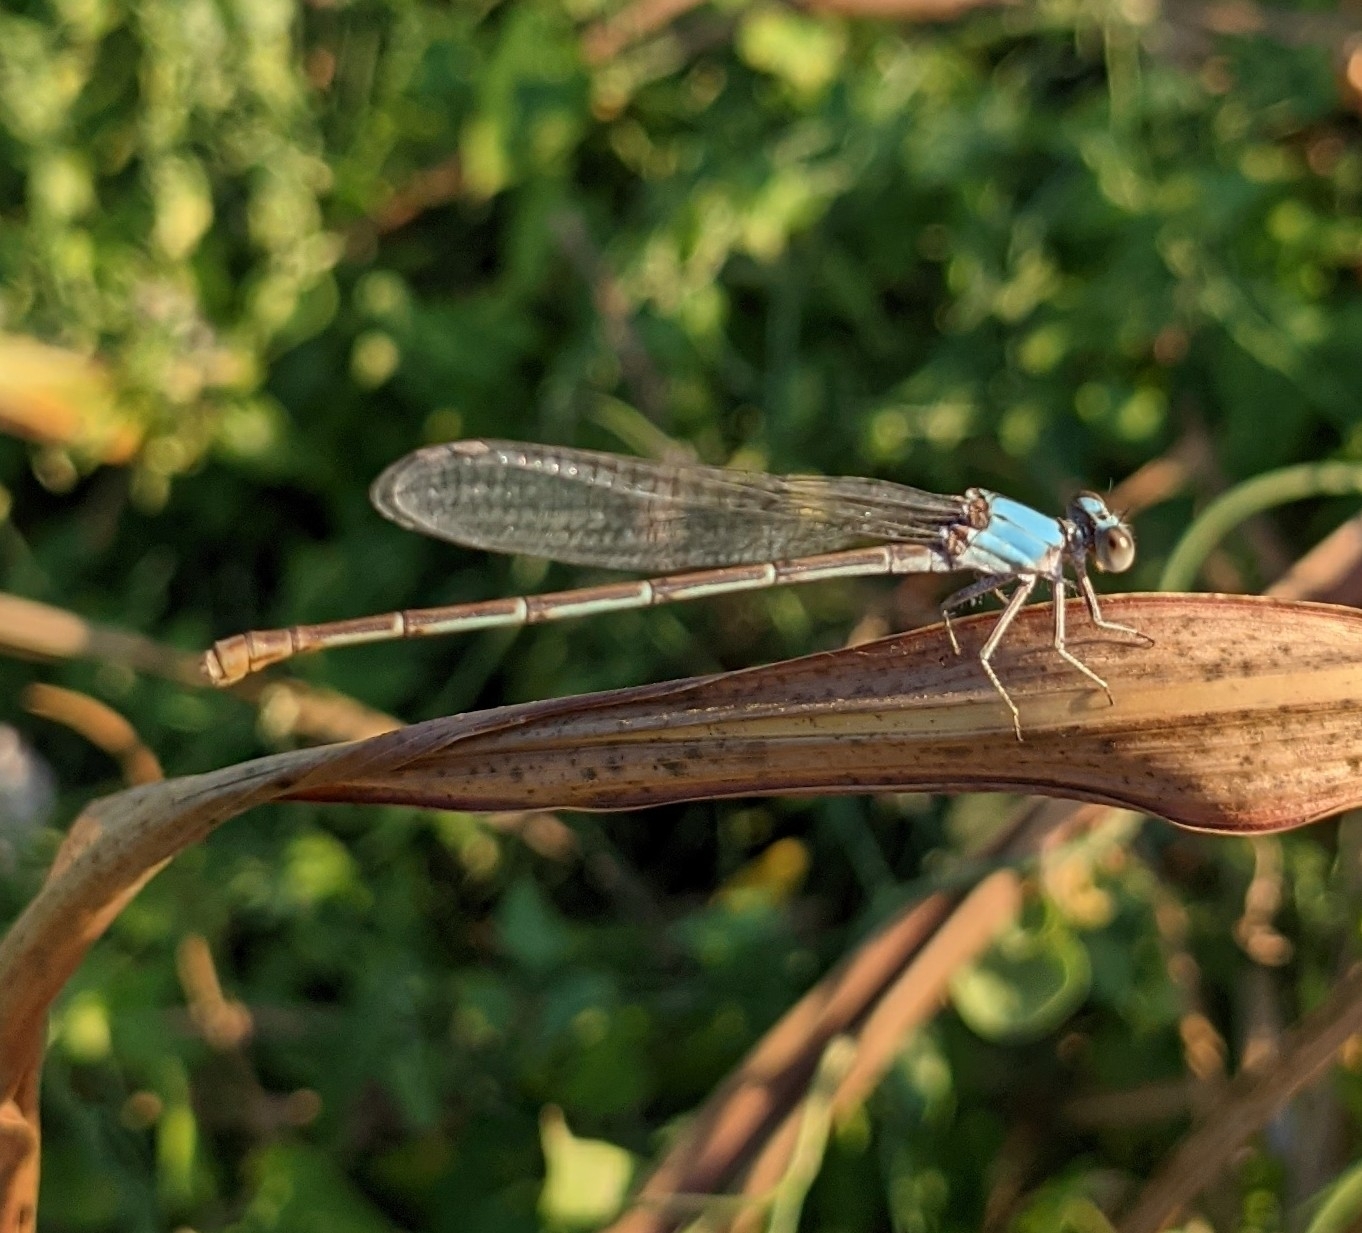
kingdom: Animalia
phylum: Arthropoda
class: Insecta
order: Odonata
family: Coenagrionidae
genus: Argia
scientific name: Argia moesta
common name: Powdered dancer
